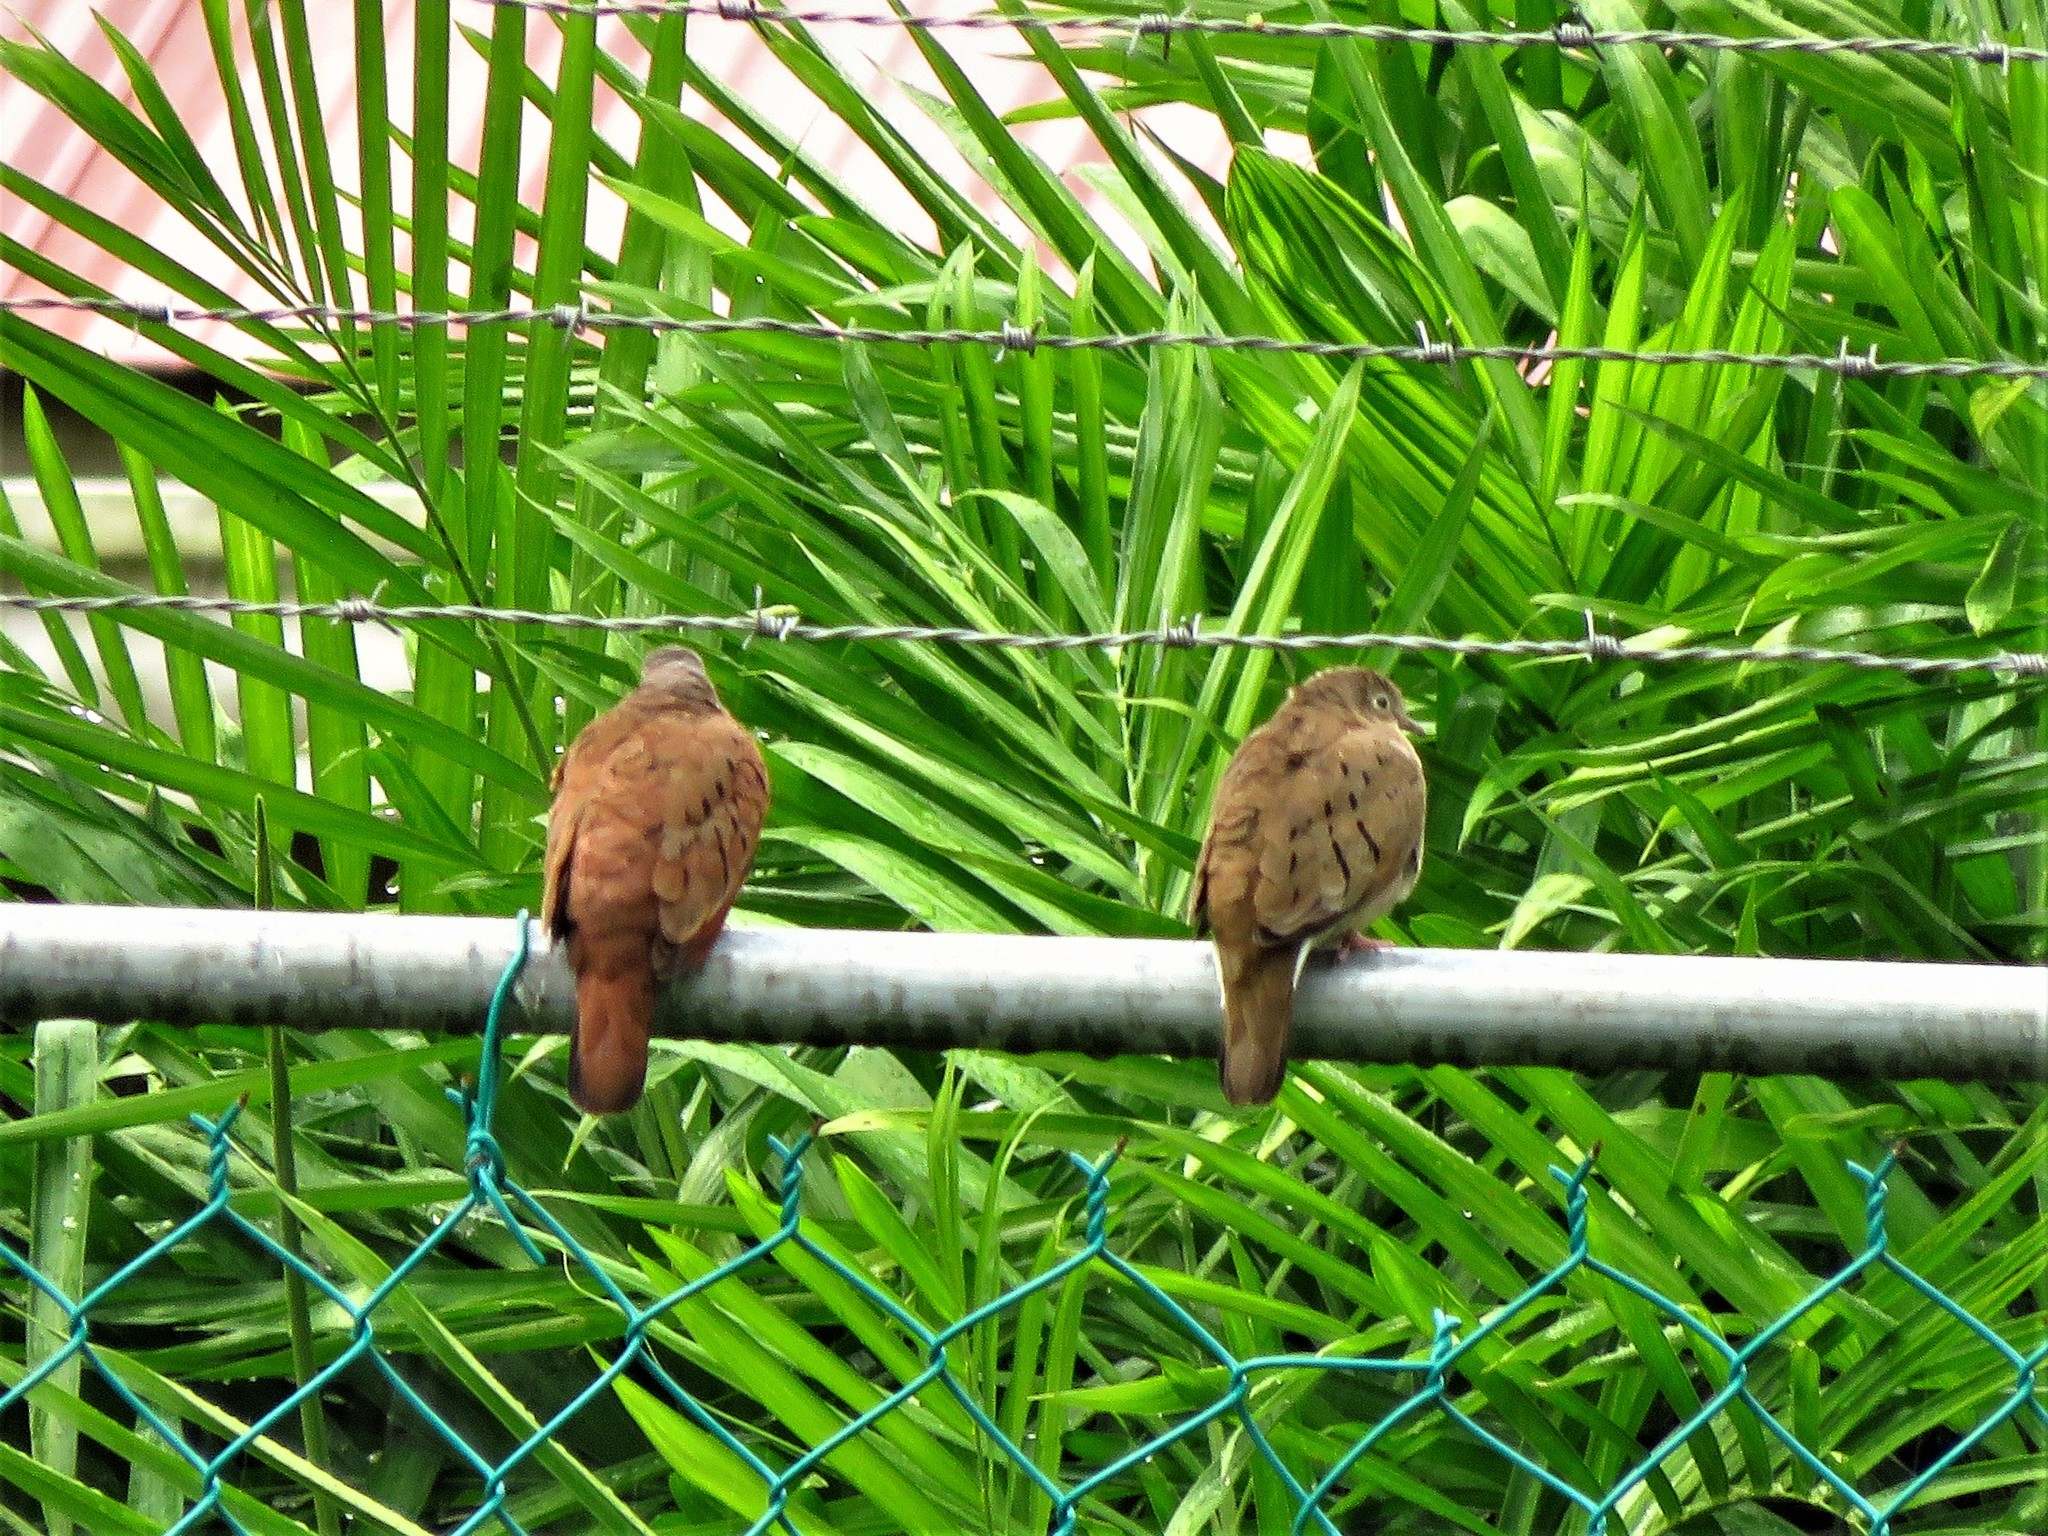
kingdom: Animalia
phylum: Chordata
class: Aves
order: Columbiformes
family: Columbidae
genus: Columbina
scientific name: Columbina talpacoti
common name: Ruddy ground dove
